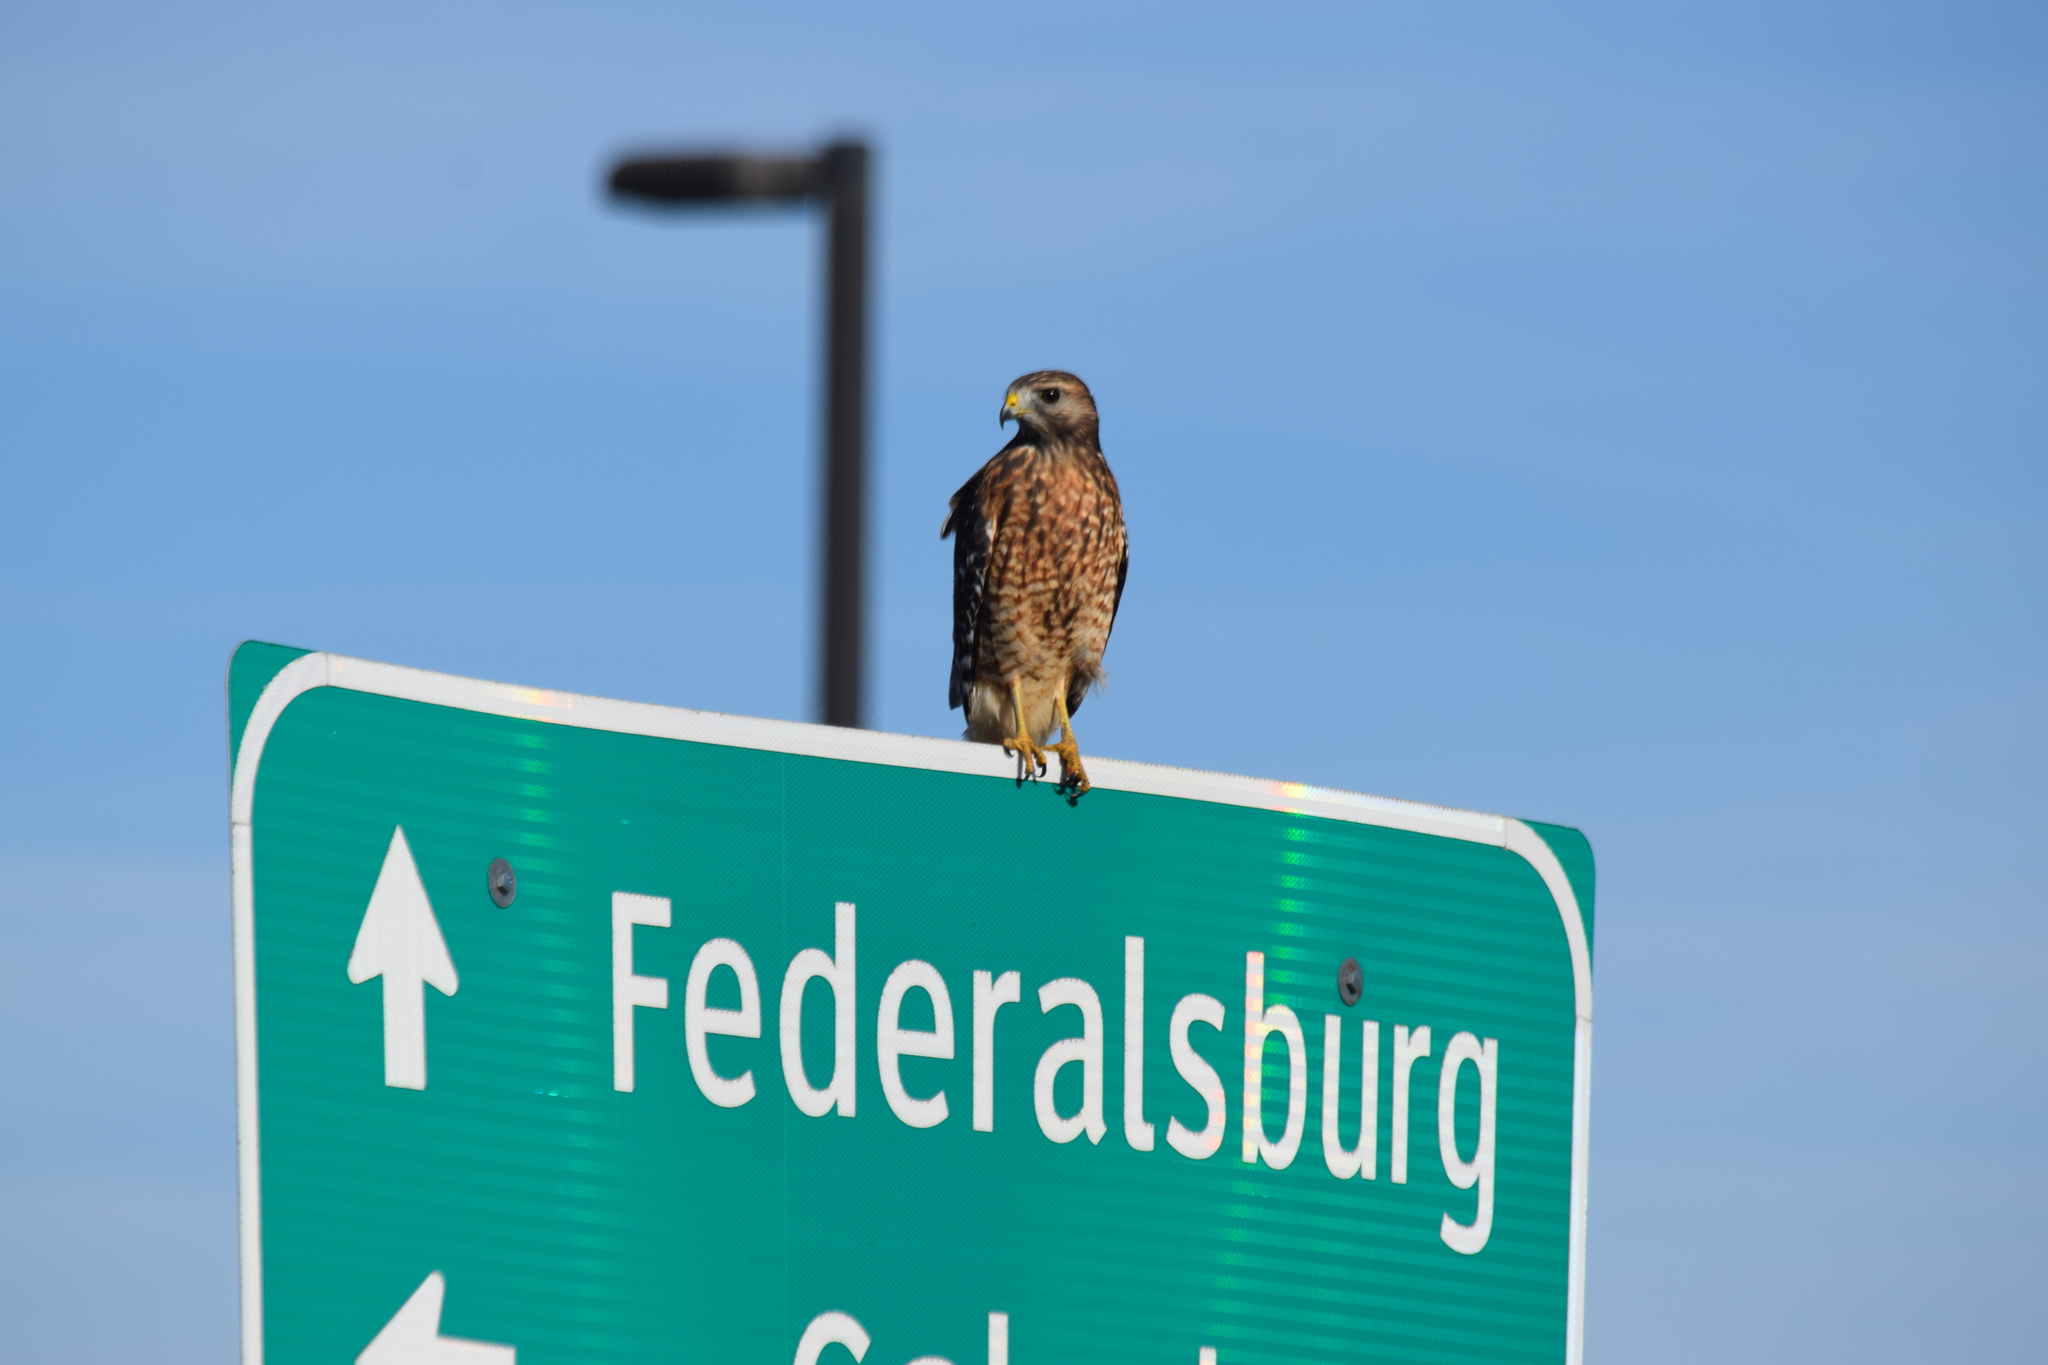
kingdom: Animalia
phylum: Chordata
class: Aves
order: Accipitriformes
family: Accipitridae
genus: Buteo
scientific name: Buteo lineatus
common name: Red-shouldered hawk
